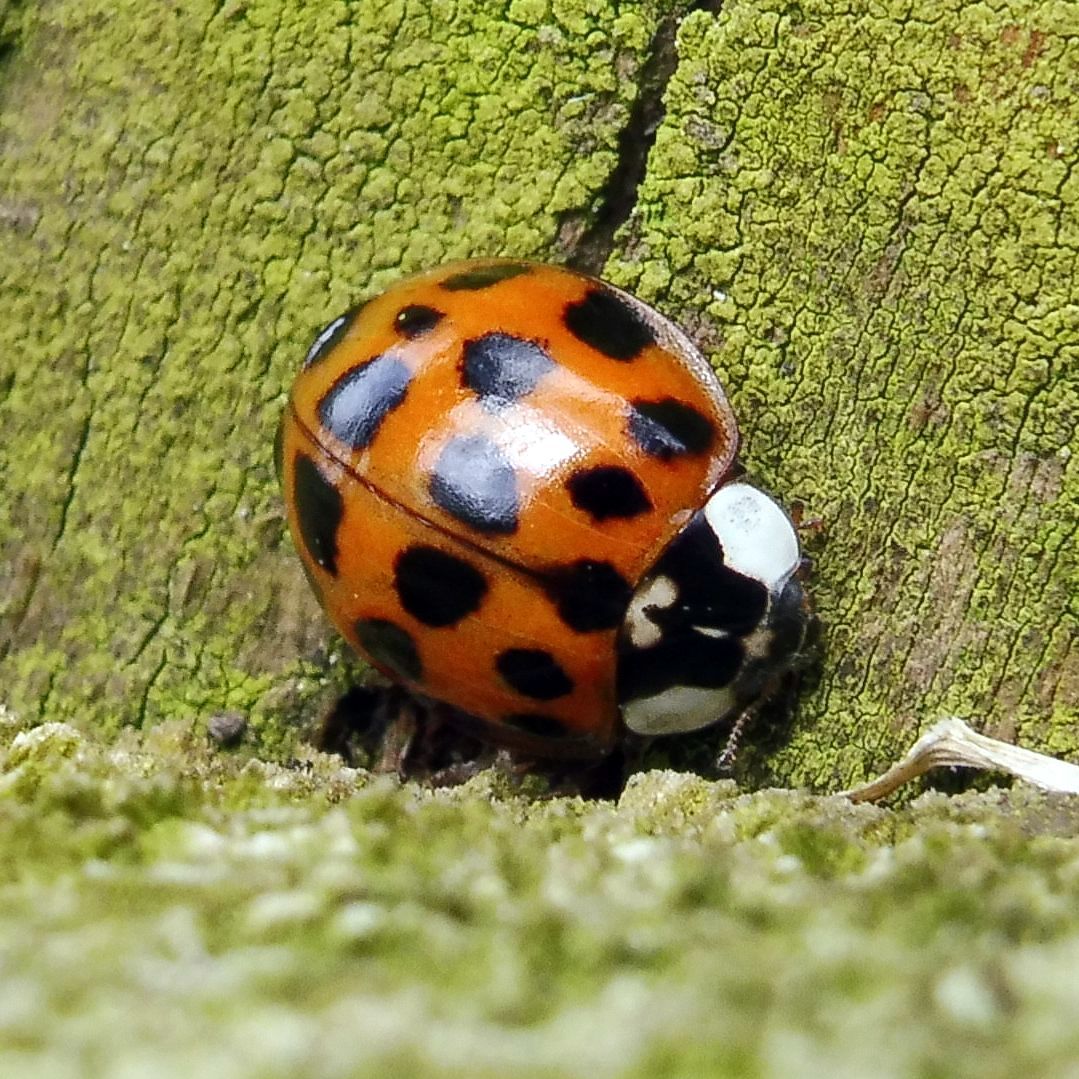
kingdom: Animalia
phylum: Arthropoda
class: Insecta
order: Coleoptera
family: Coccinellidae
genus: Harmonia
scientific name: Harmonia axyridis
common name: Harlequin ladybird
